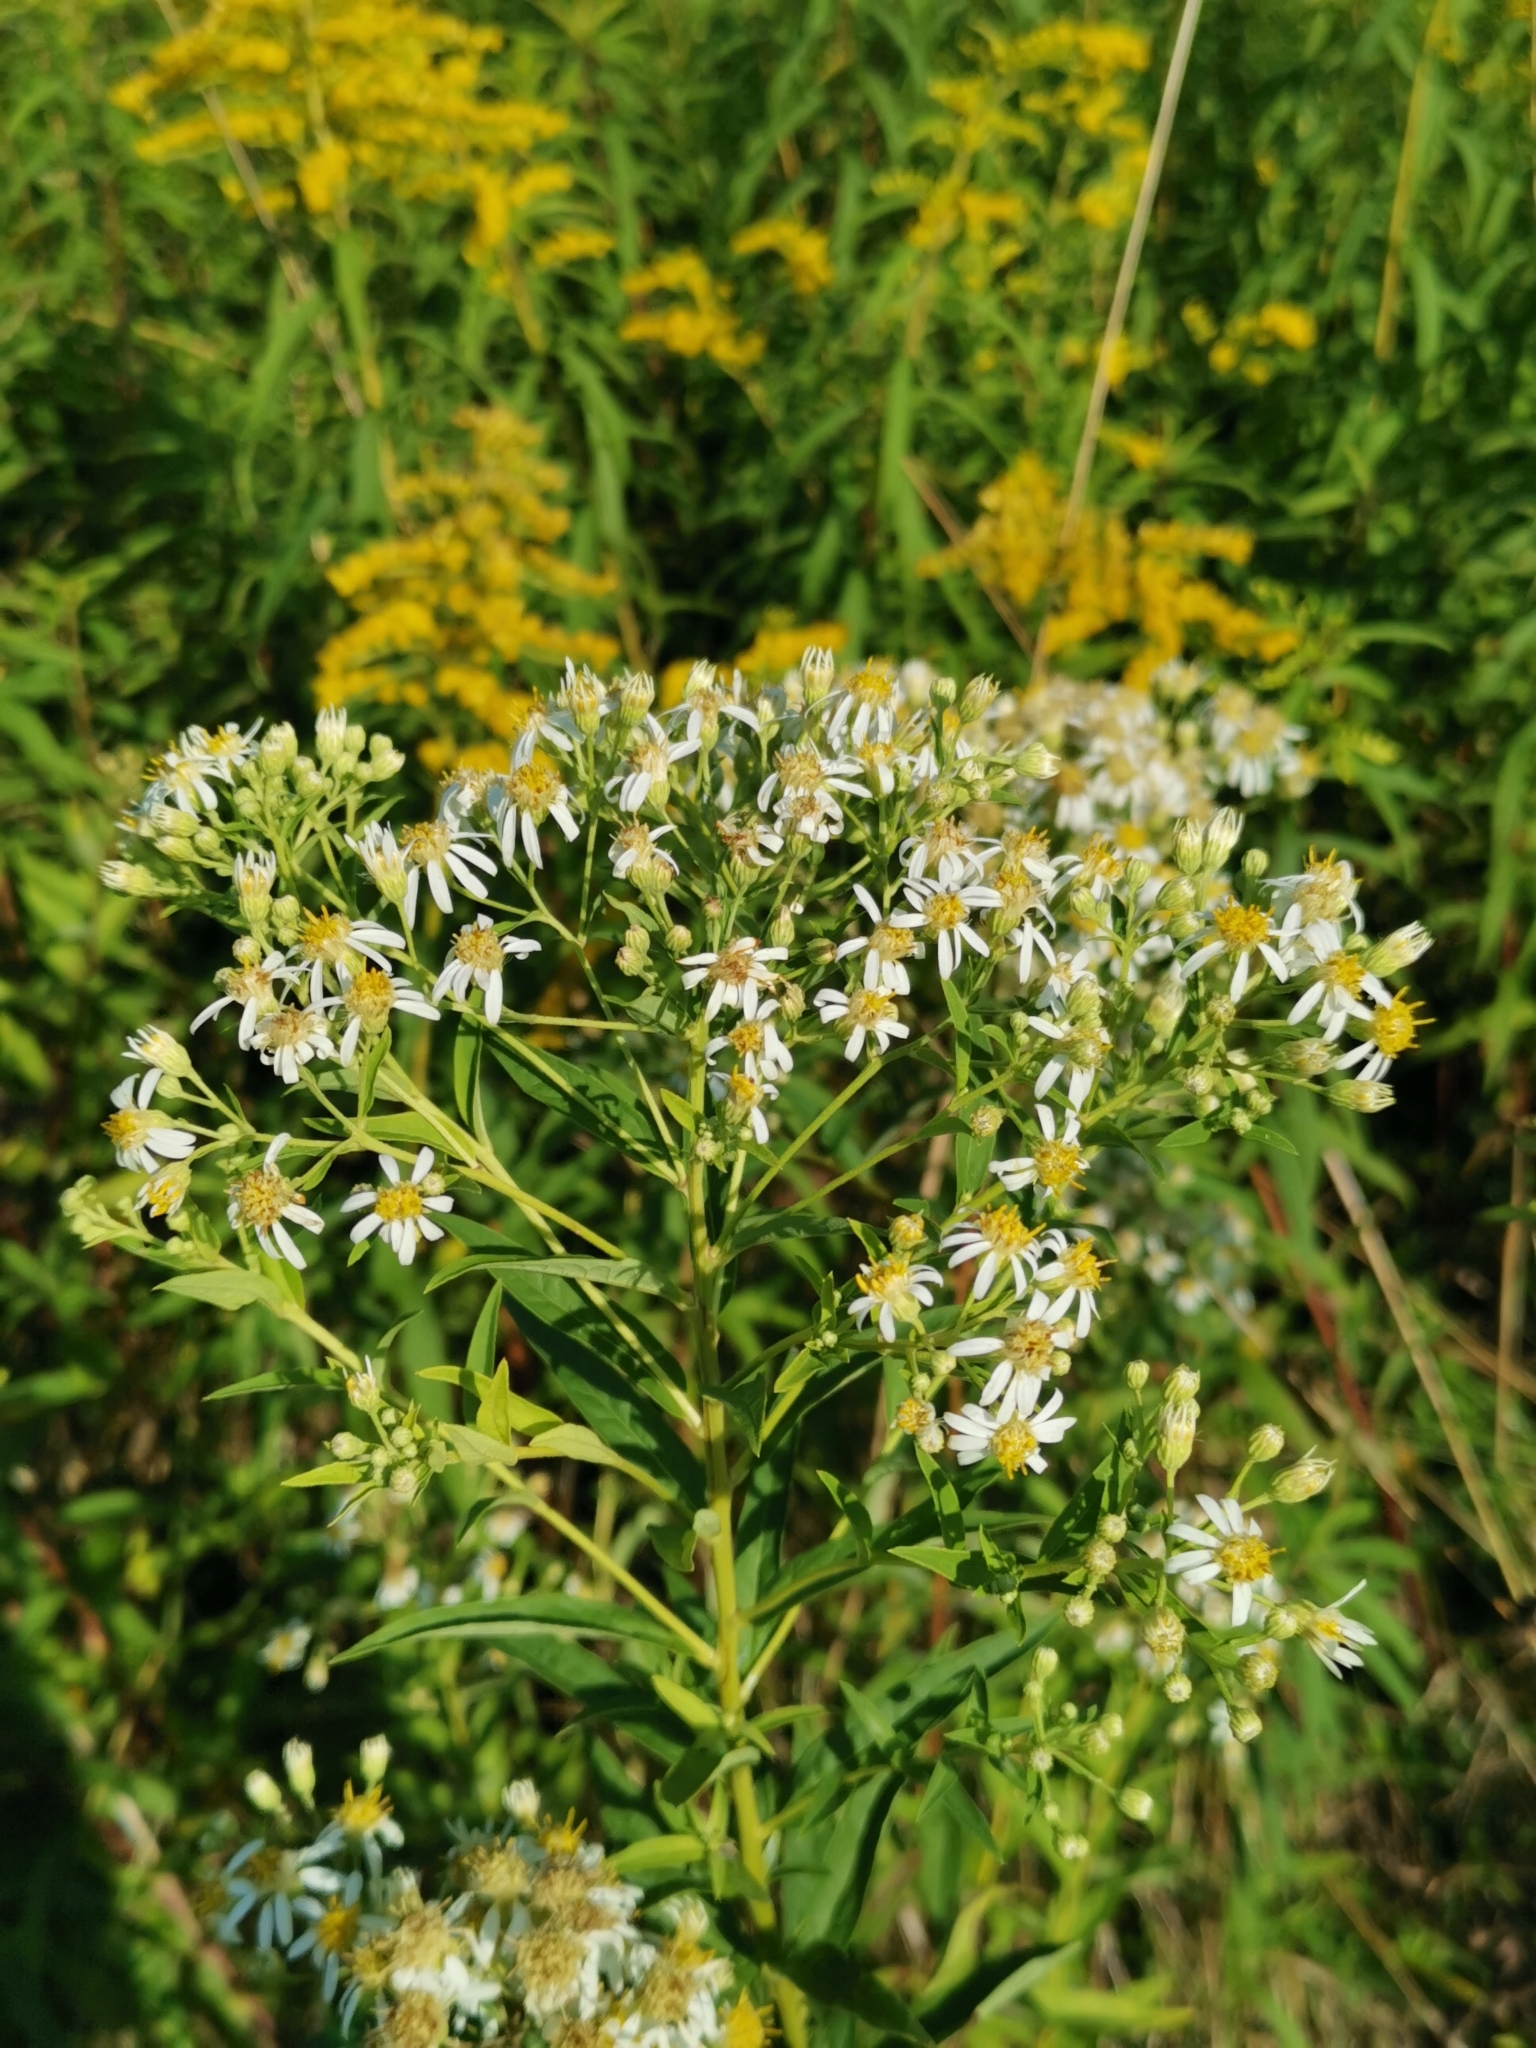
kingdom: Plantae
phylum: Tracheophyta
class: Magnoliopsida
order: Asterales
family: Asteraceae
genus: Doellingeria
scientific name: Doellingeria umbellata
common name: Flat-top white aster
